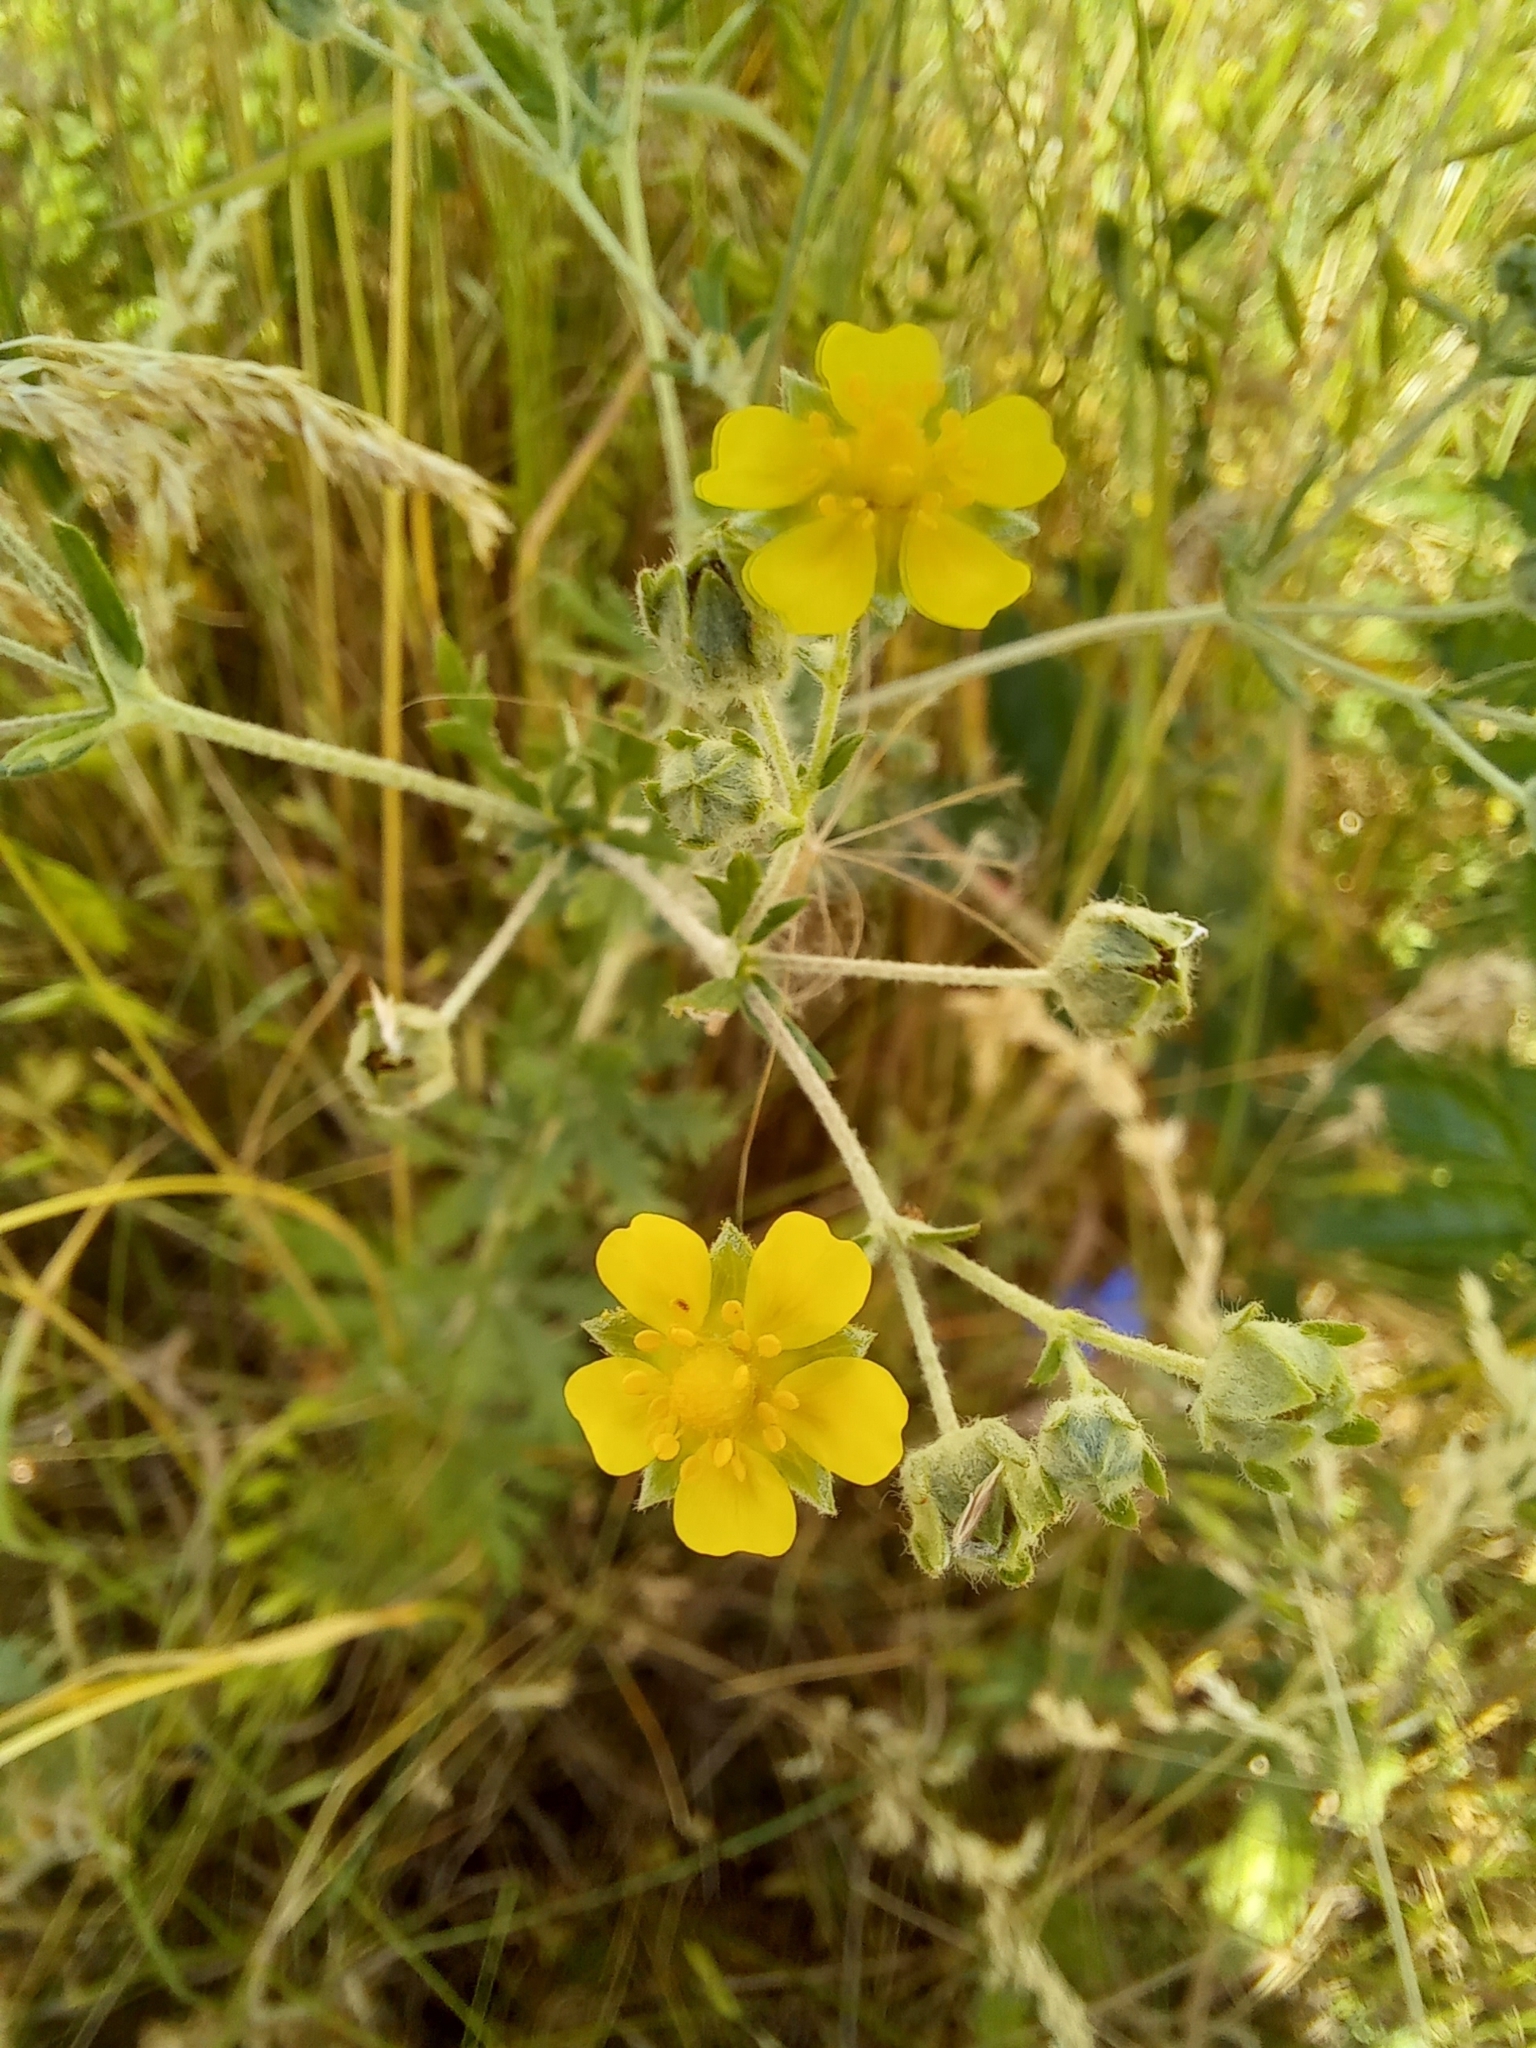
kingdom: Plantae
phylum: Tracheophyta
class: Magnoliopsida
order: Rosales
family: Rosaceae
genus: Potentilla
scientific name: Potentilla argentea
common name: Hoary cinquefoil
